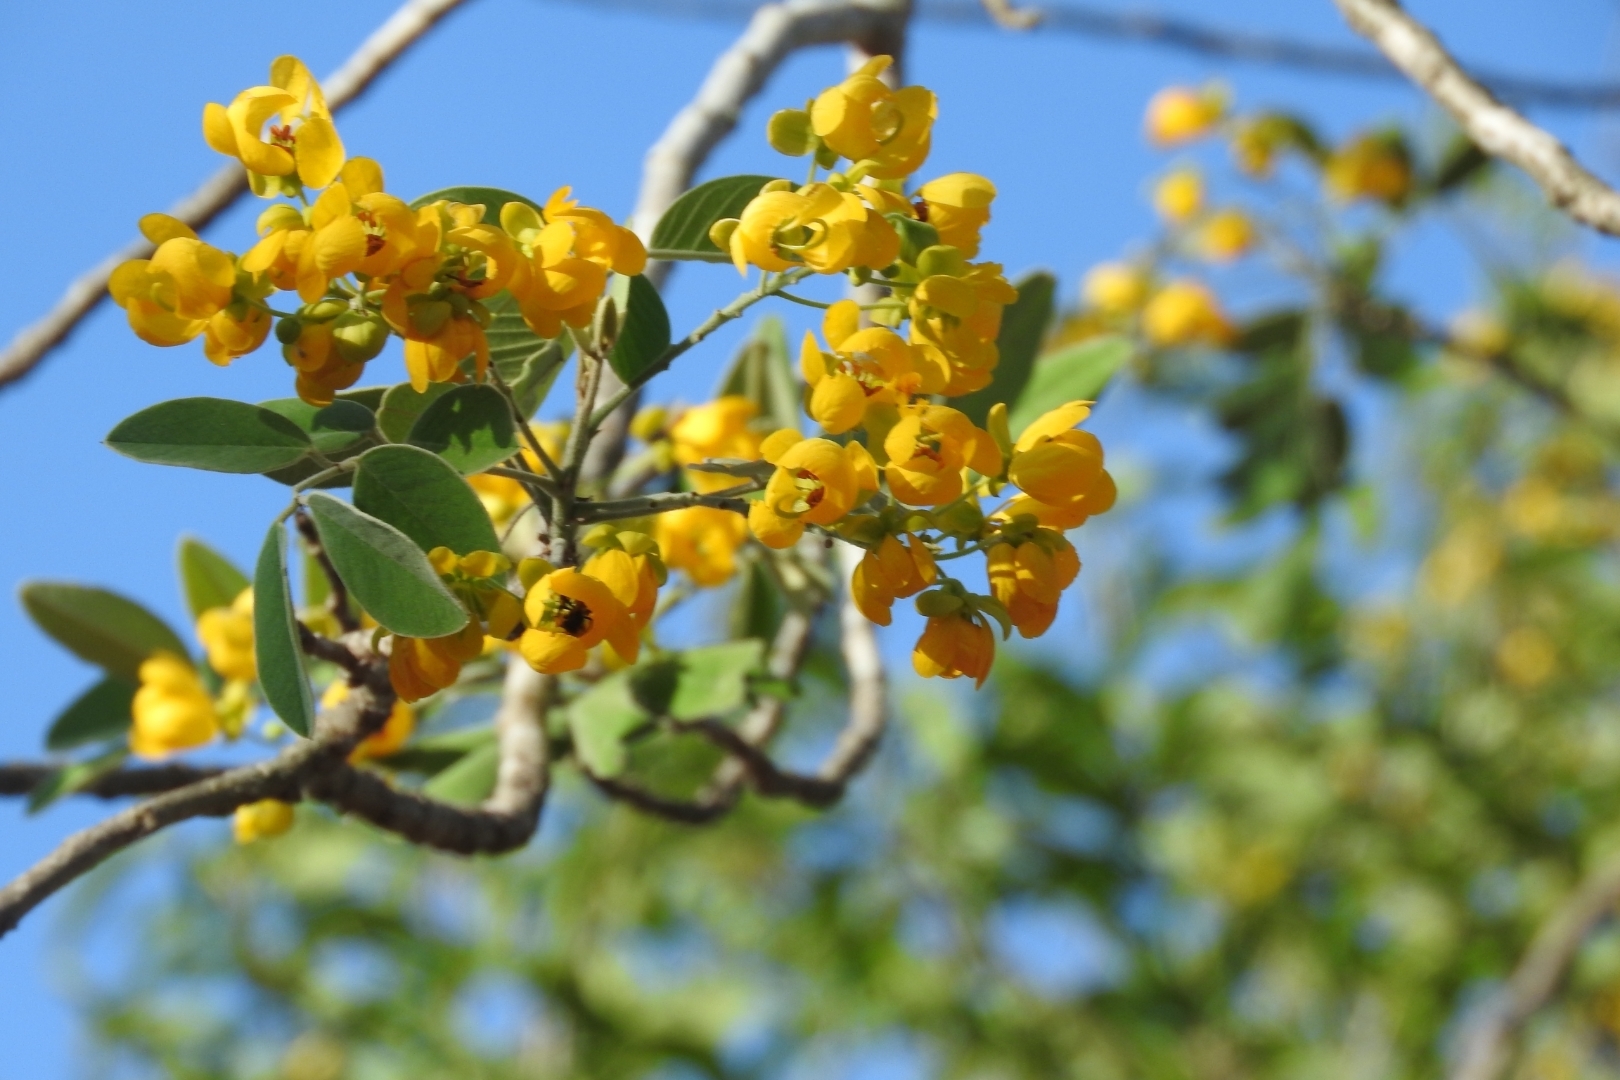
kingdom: Plantae
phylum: Tracheophyta
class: Magnoliopsida
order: Fabales
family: Fabaceae
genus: Senna
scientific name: Senna atomaria
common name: Flor de san jose
